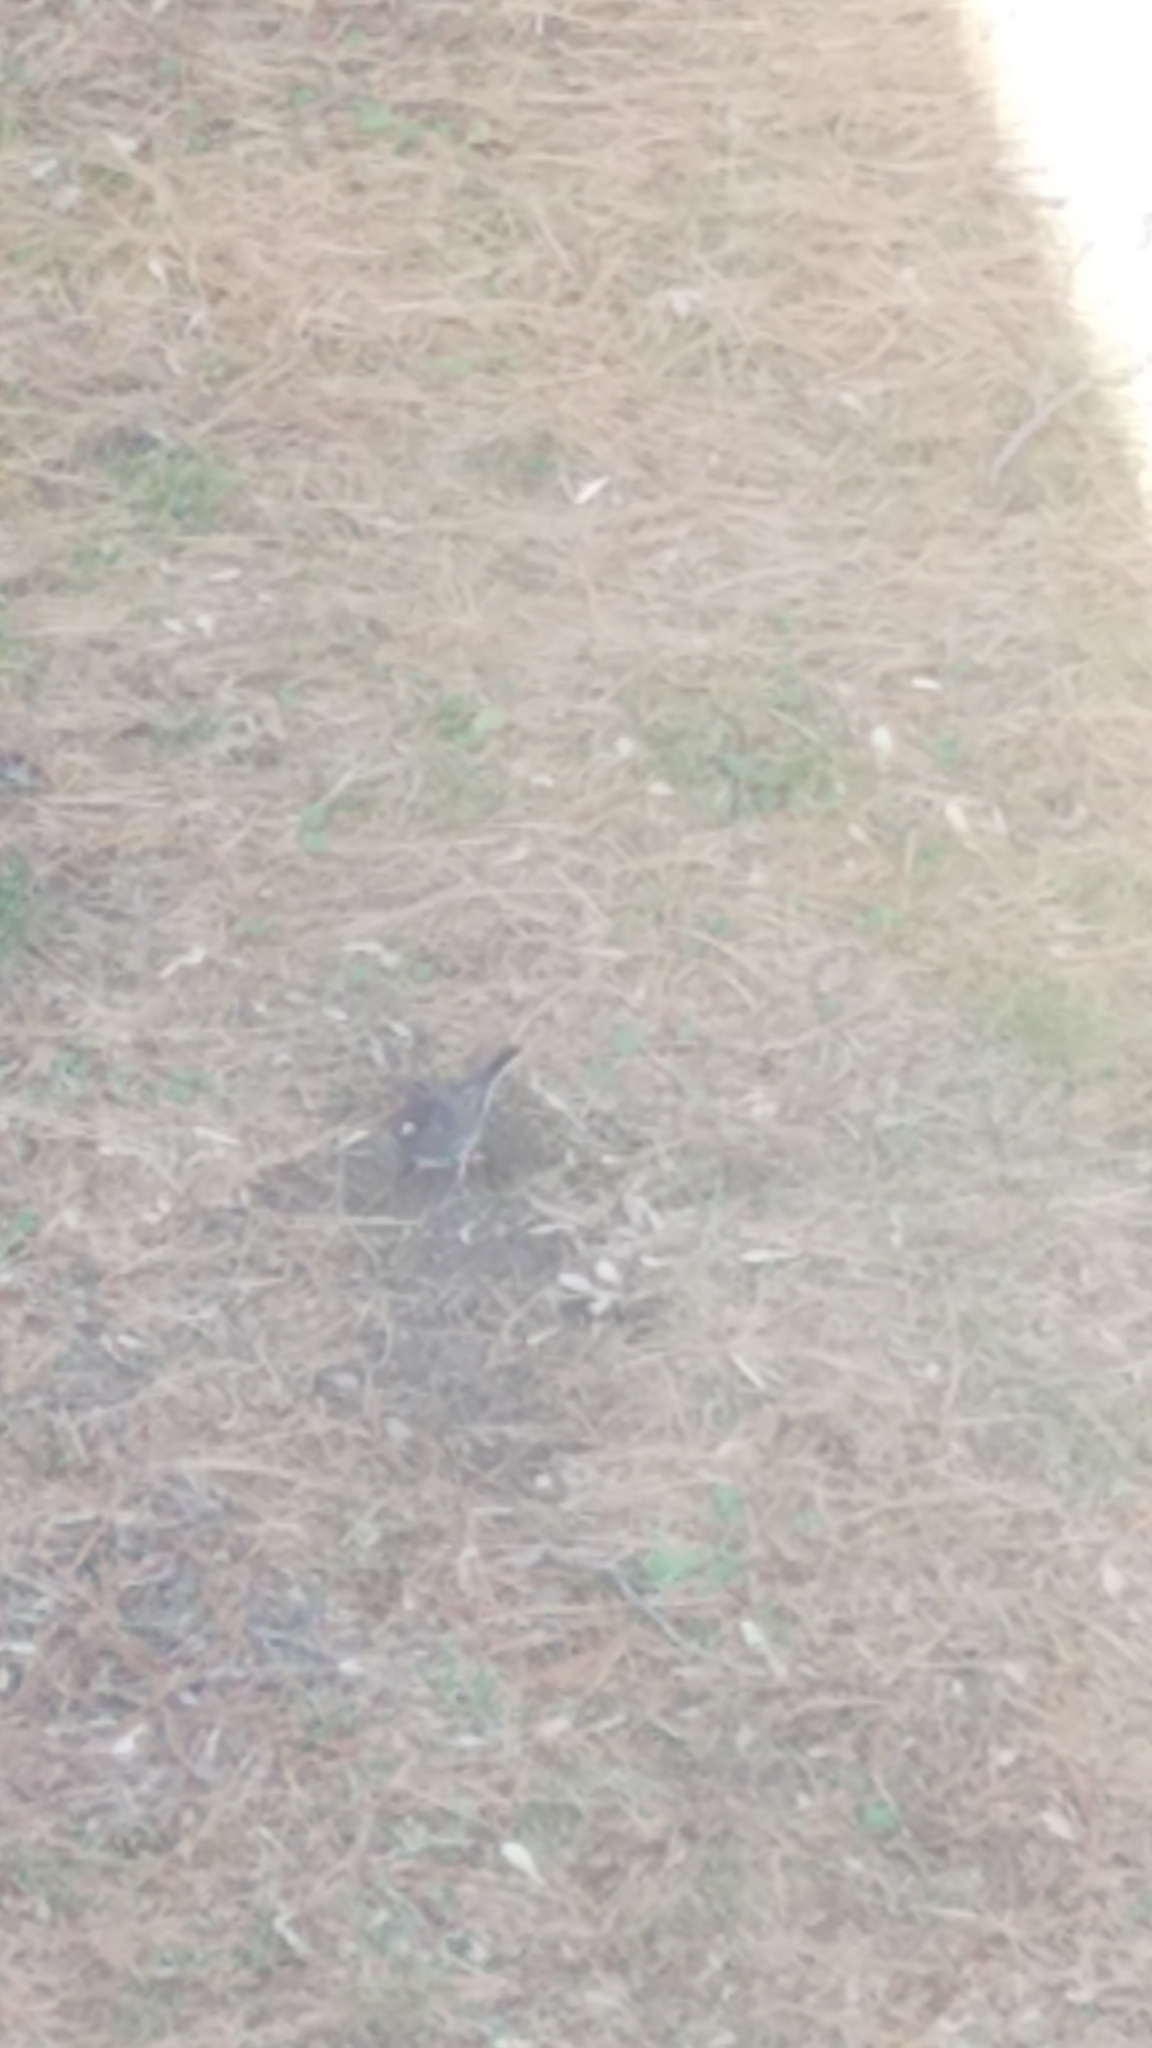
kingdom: Animalia
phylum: Chordata
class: Aves
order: Passeriformes
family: Passerellidae
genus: Junco
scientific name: Junco hyemalis
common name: Dark-eyed junco
